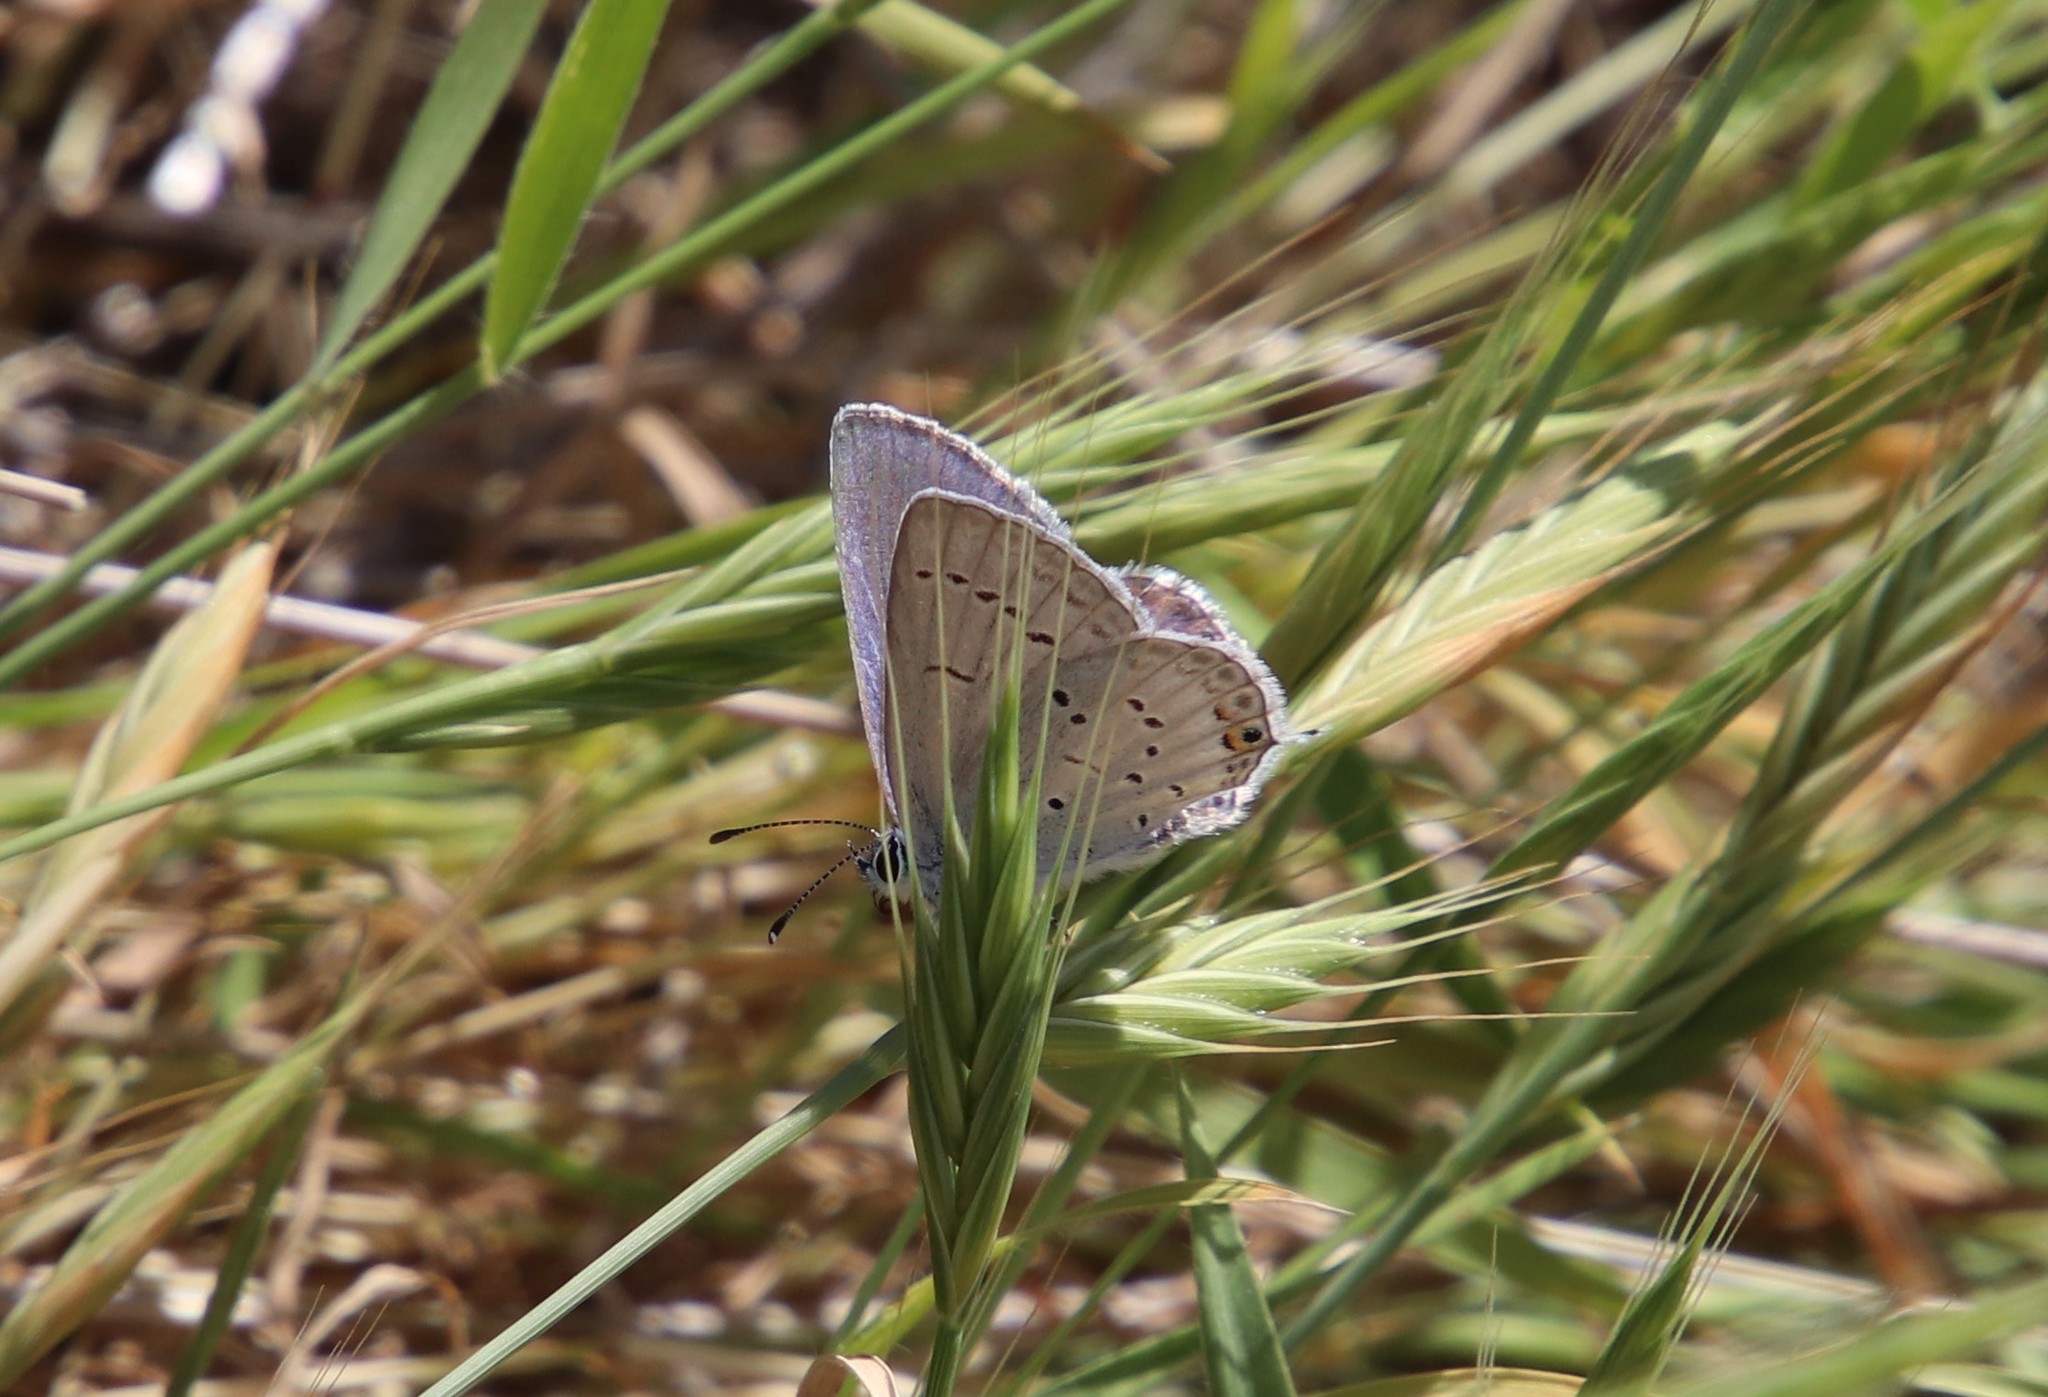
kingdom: Animalia
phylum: Arthropoda
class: Insecta
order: Lepidoptera
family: Lycaenidae
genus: Elkalyce
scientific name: Elkalyce amyntula
